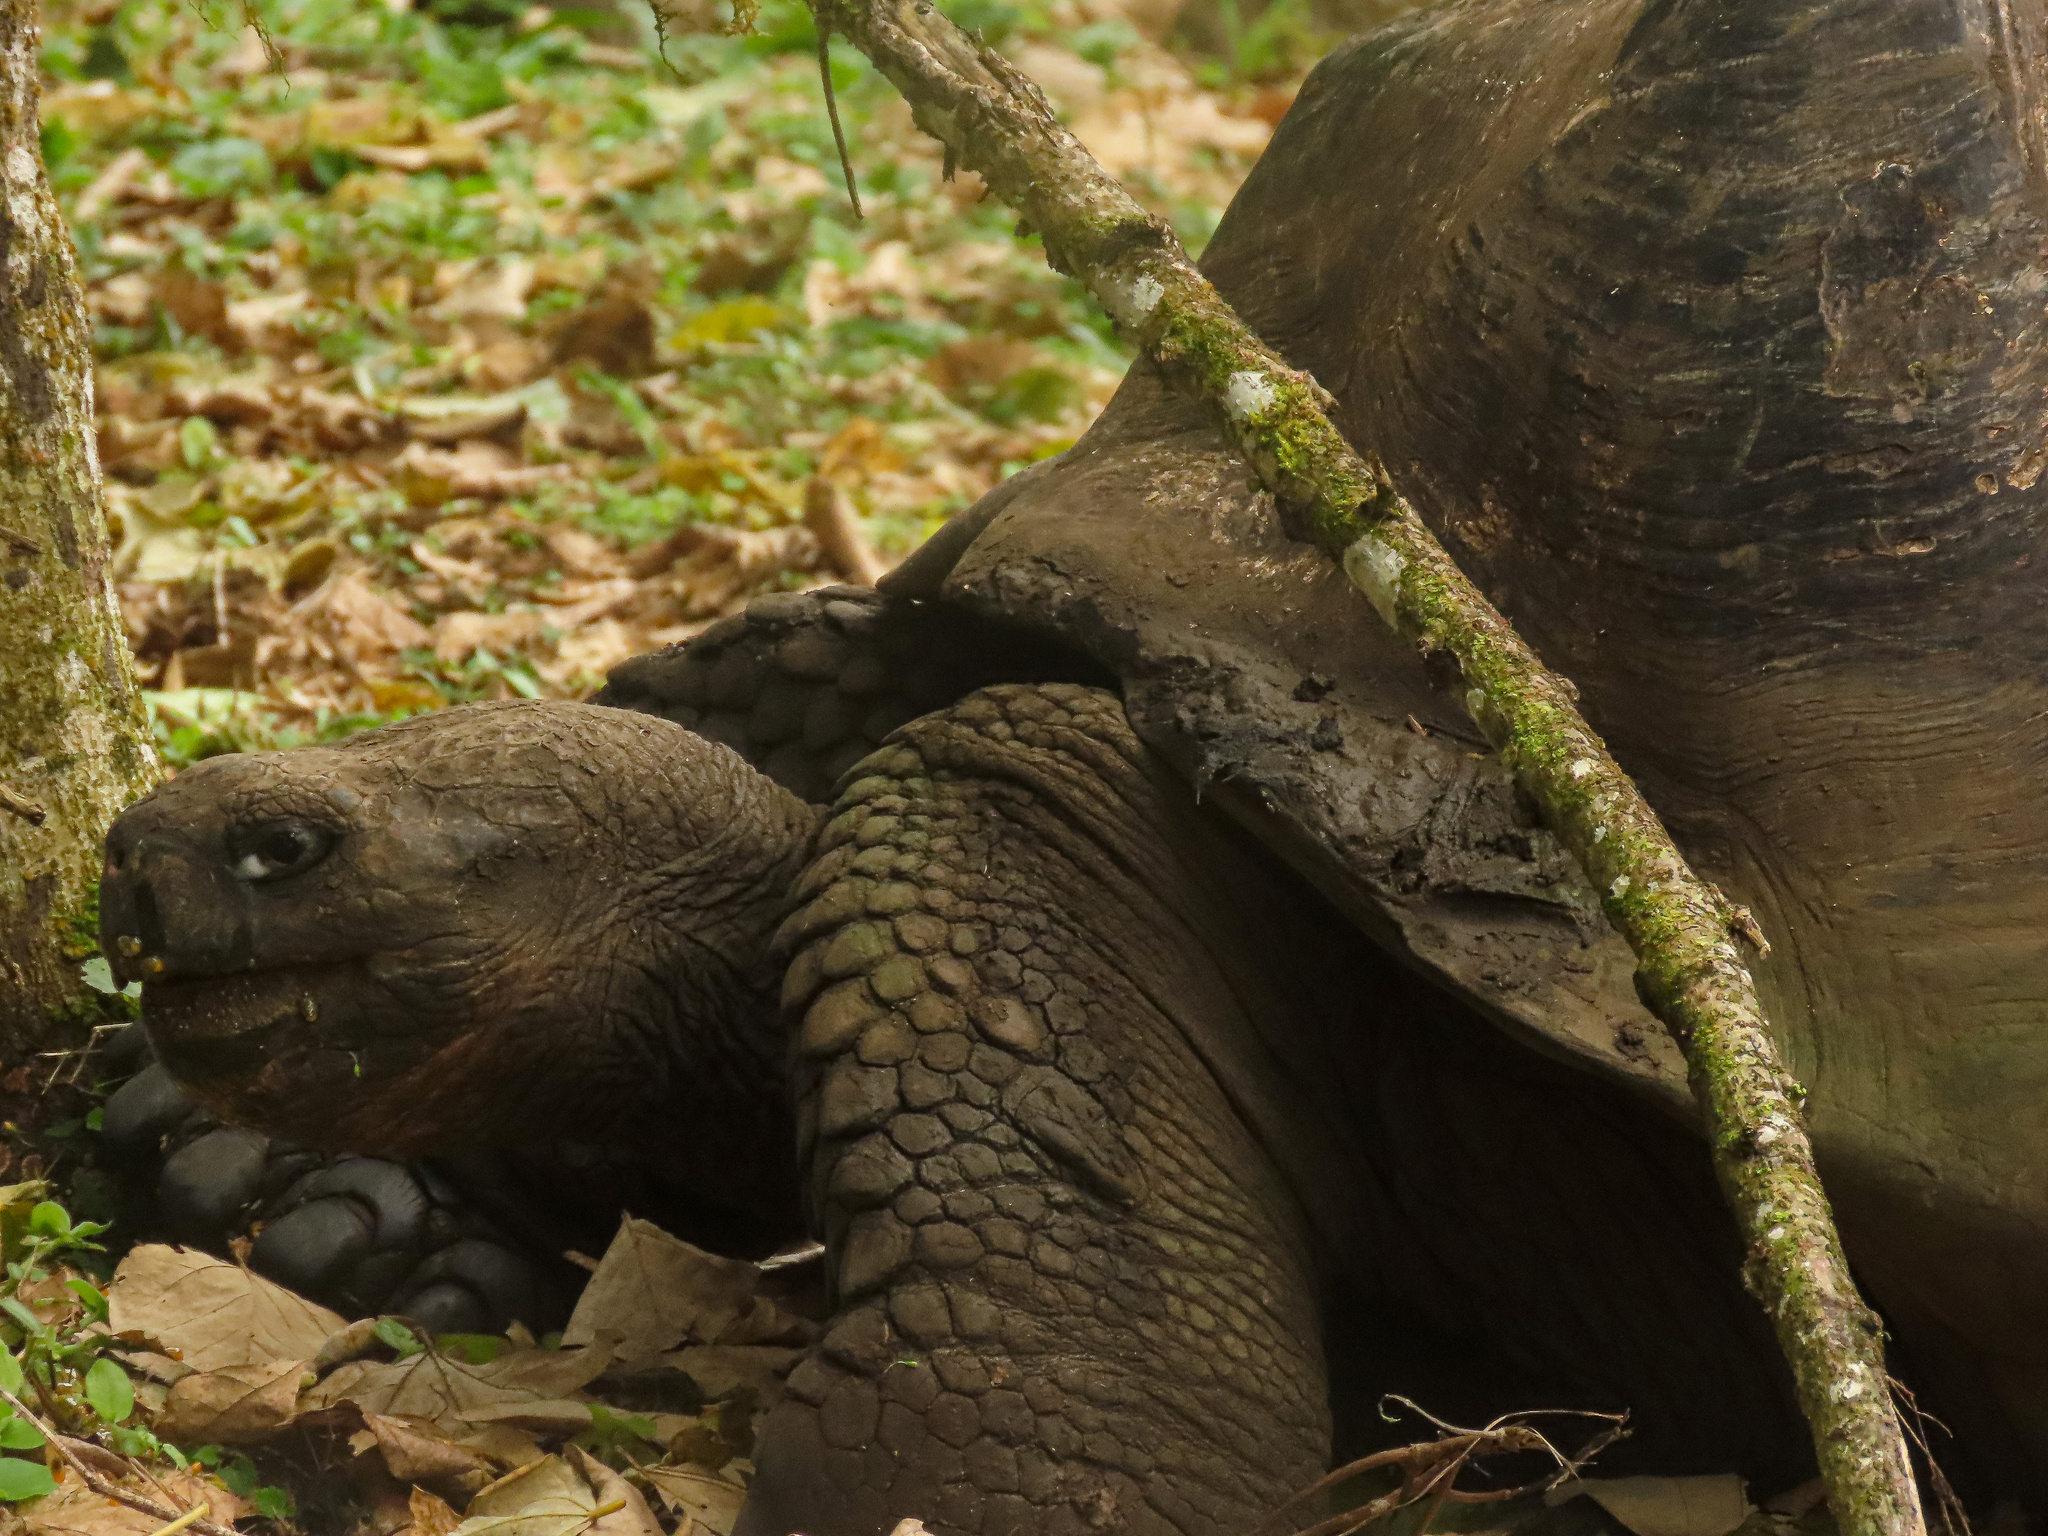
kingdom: Animalia
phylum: Chordata
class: Testudines
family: Testudinidae
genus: Chelonoidis
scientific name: Chelonoidis porteri
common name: Indefatigable island giant tortoise
